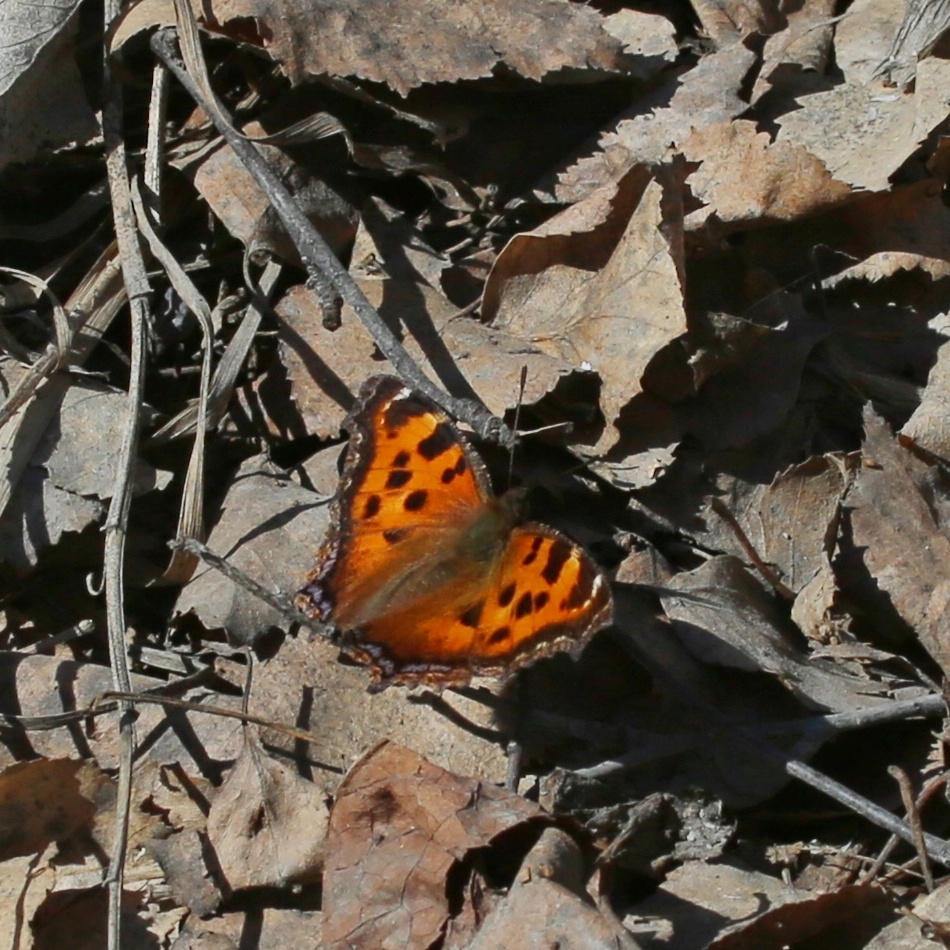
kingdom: Animalia
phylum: Arthropoda
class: Insecta
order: Lepidoptera
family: Nymphalidae
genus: Nymphalis
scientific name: Nymphalis xanthomelas
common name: Scarce tortoiseshell
